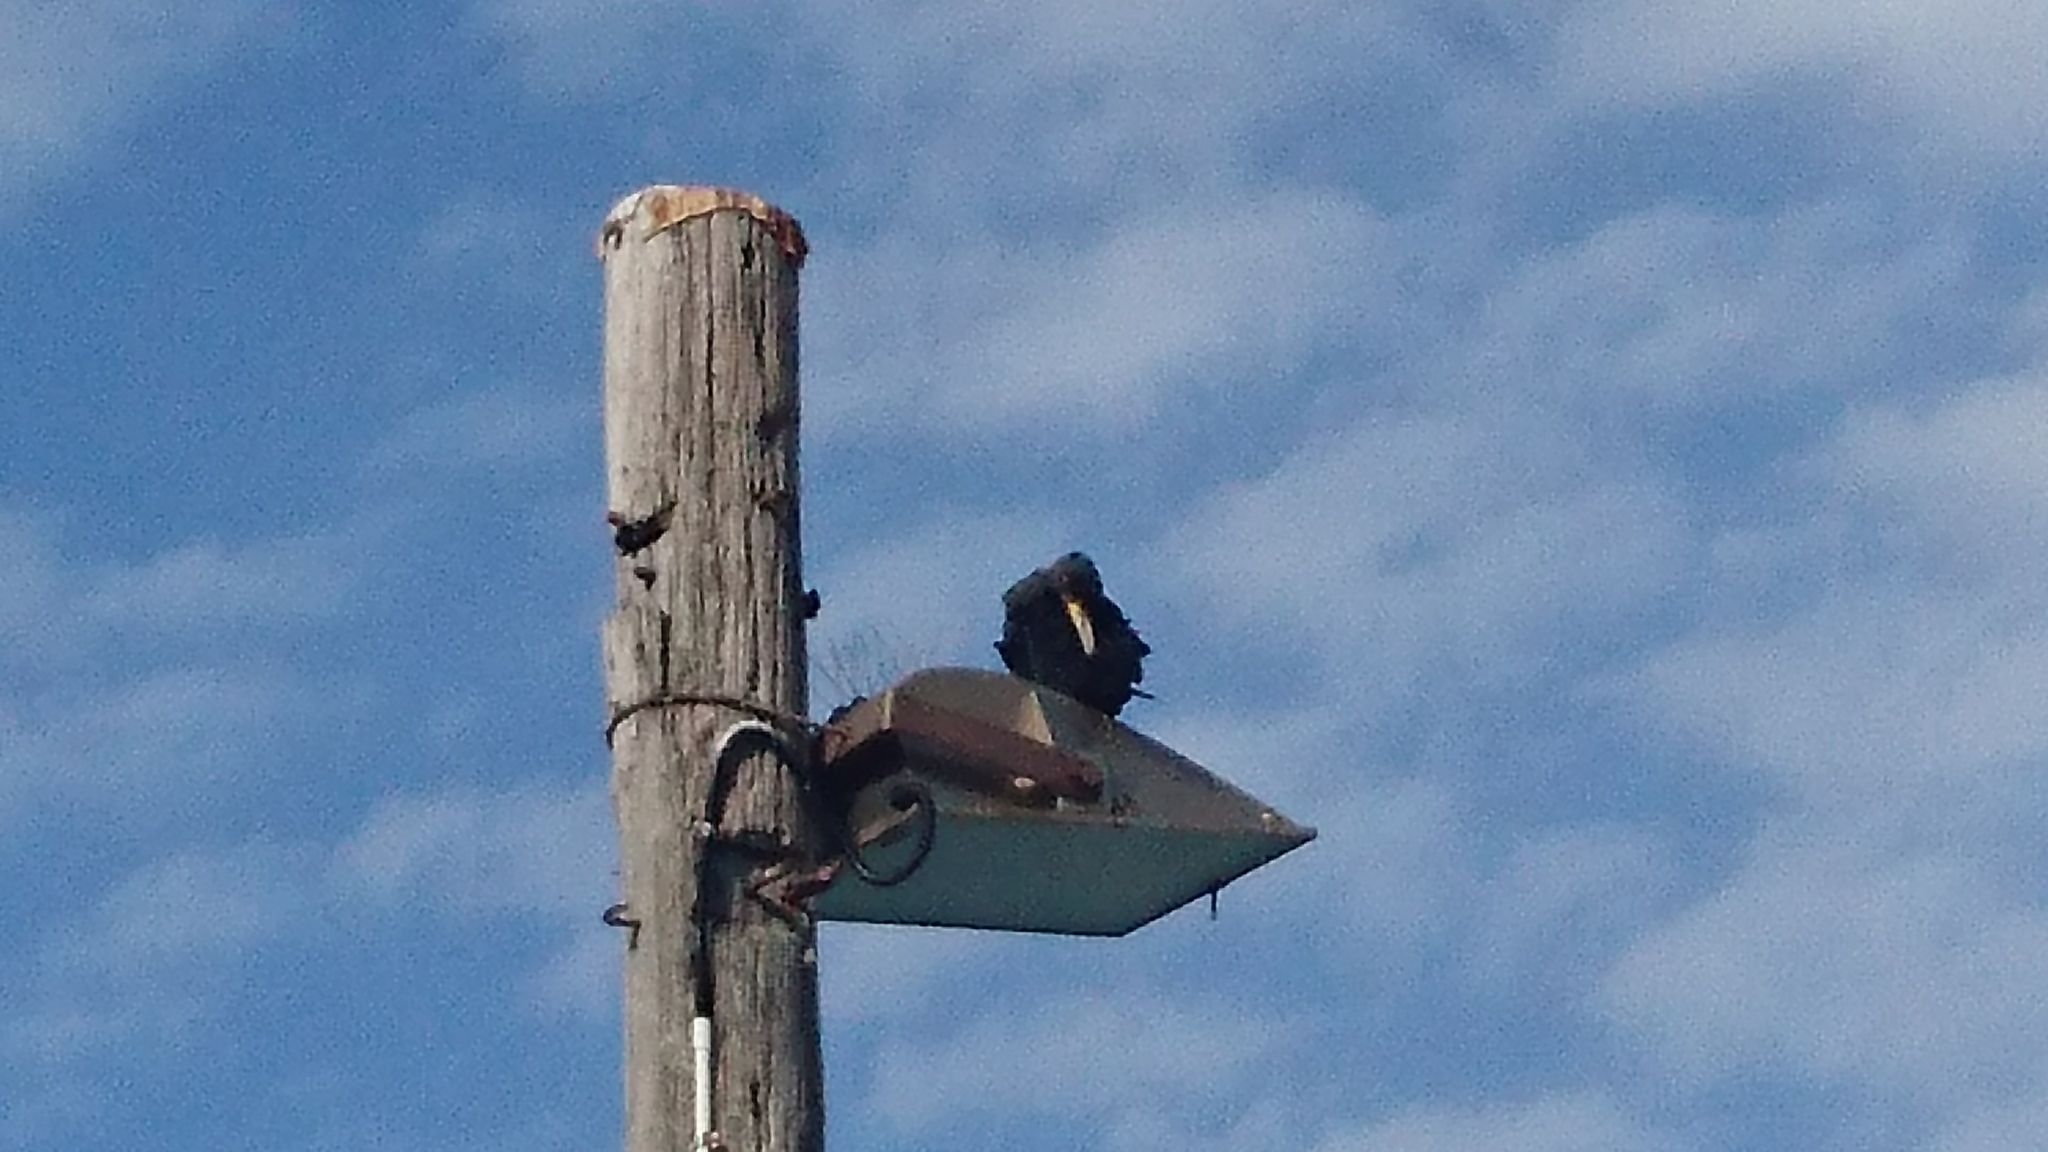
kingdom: Animalia
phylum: Chordata
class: Aves
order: Suliformes
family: Phalacrocoracidae
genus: Phalacrocorax
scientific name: Phalacrocorax carbo
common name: Great cormorant
